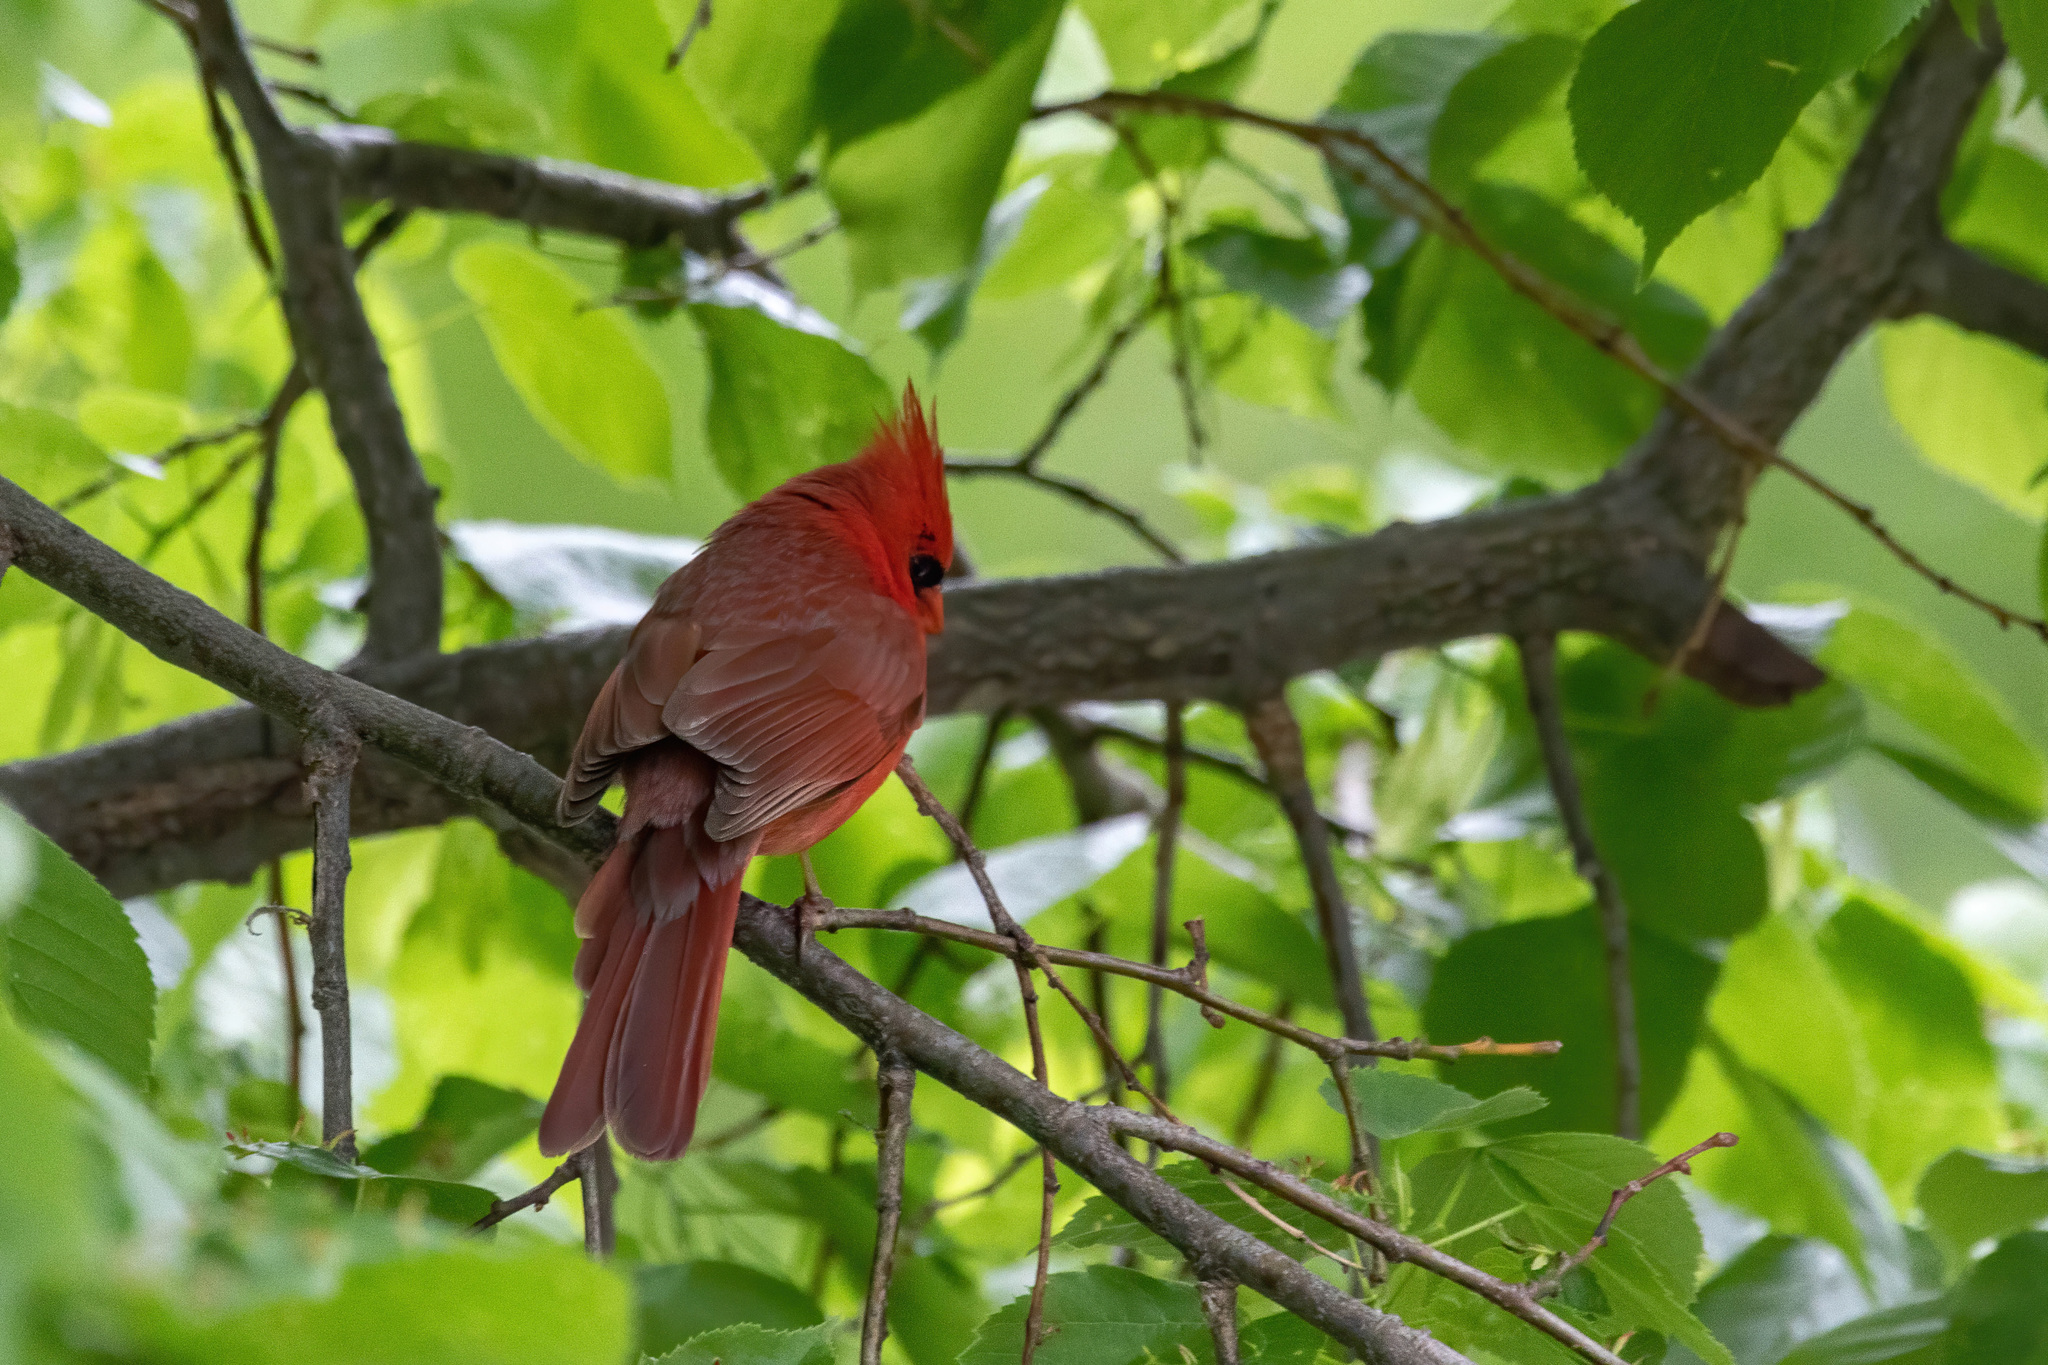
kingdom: Animalia
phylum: Chordata
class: Aves
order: Passeriformes
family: Cardinalidae
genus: Cardinalis
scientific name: Cardinalis cardinalis
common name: Northern cardinal
